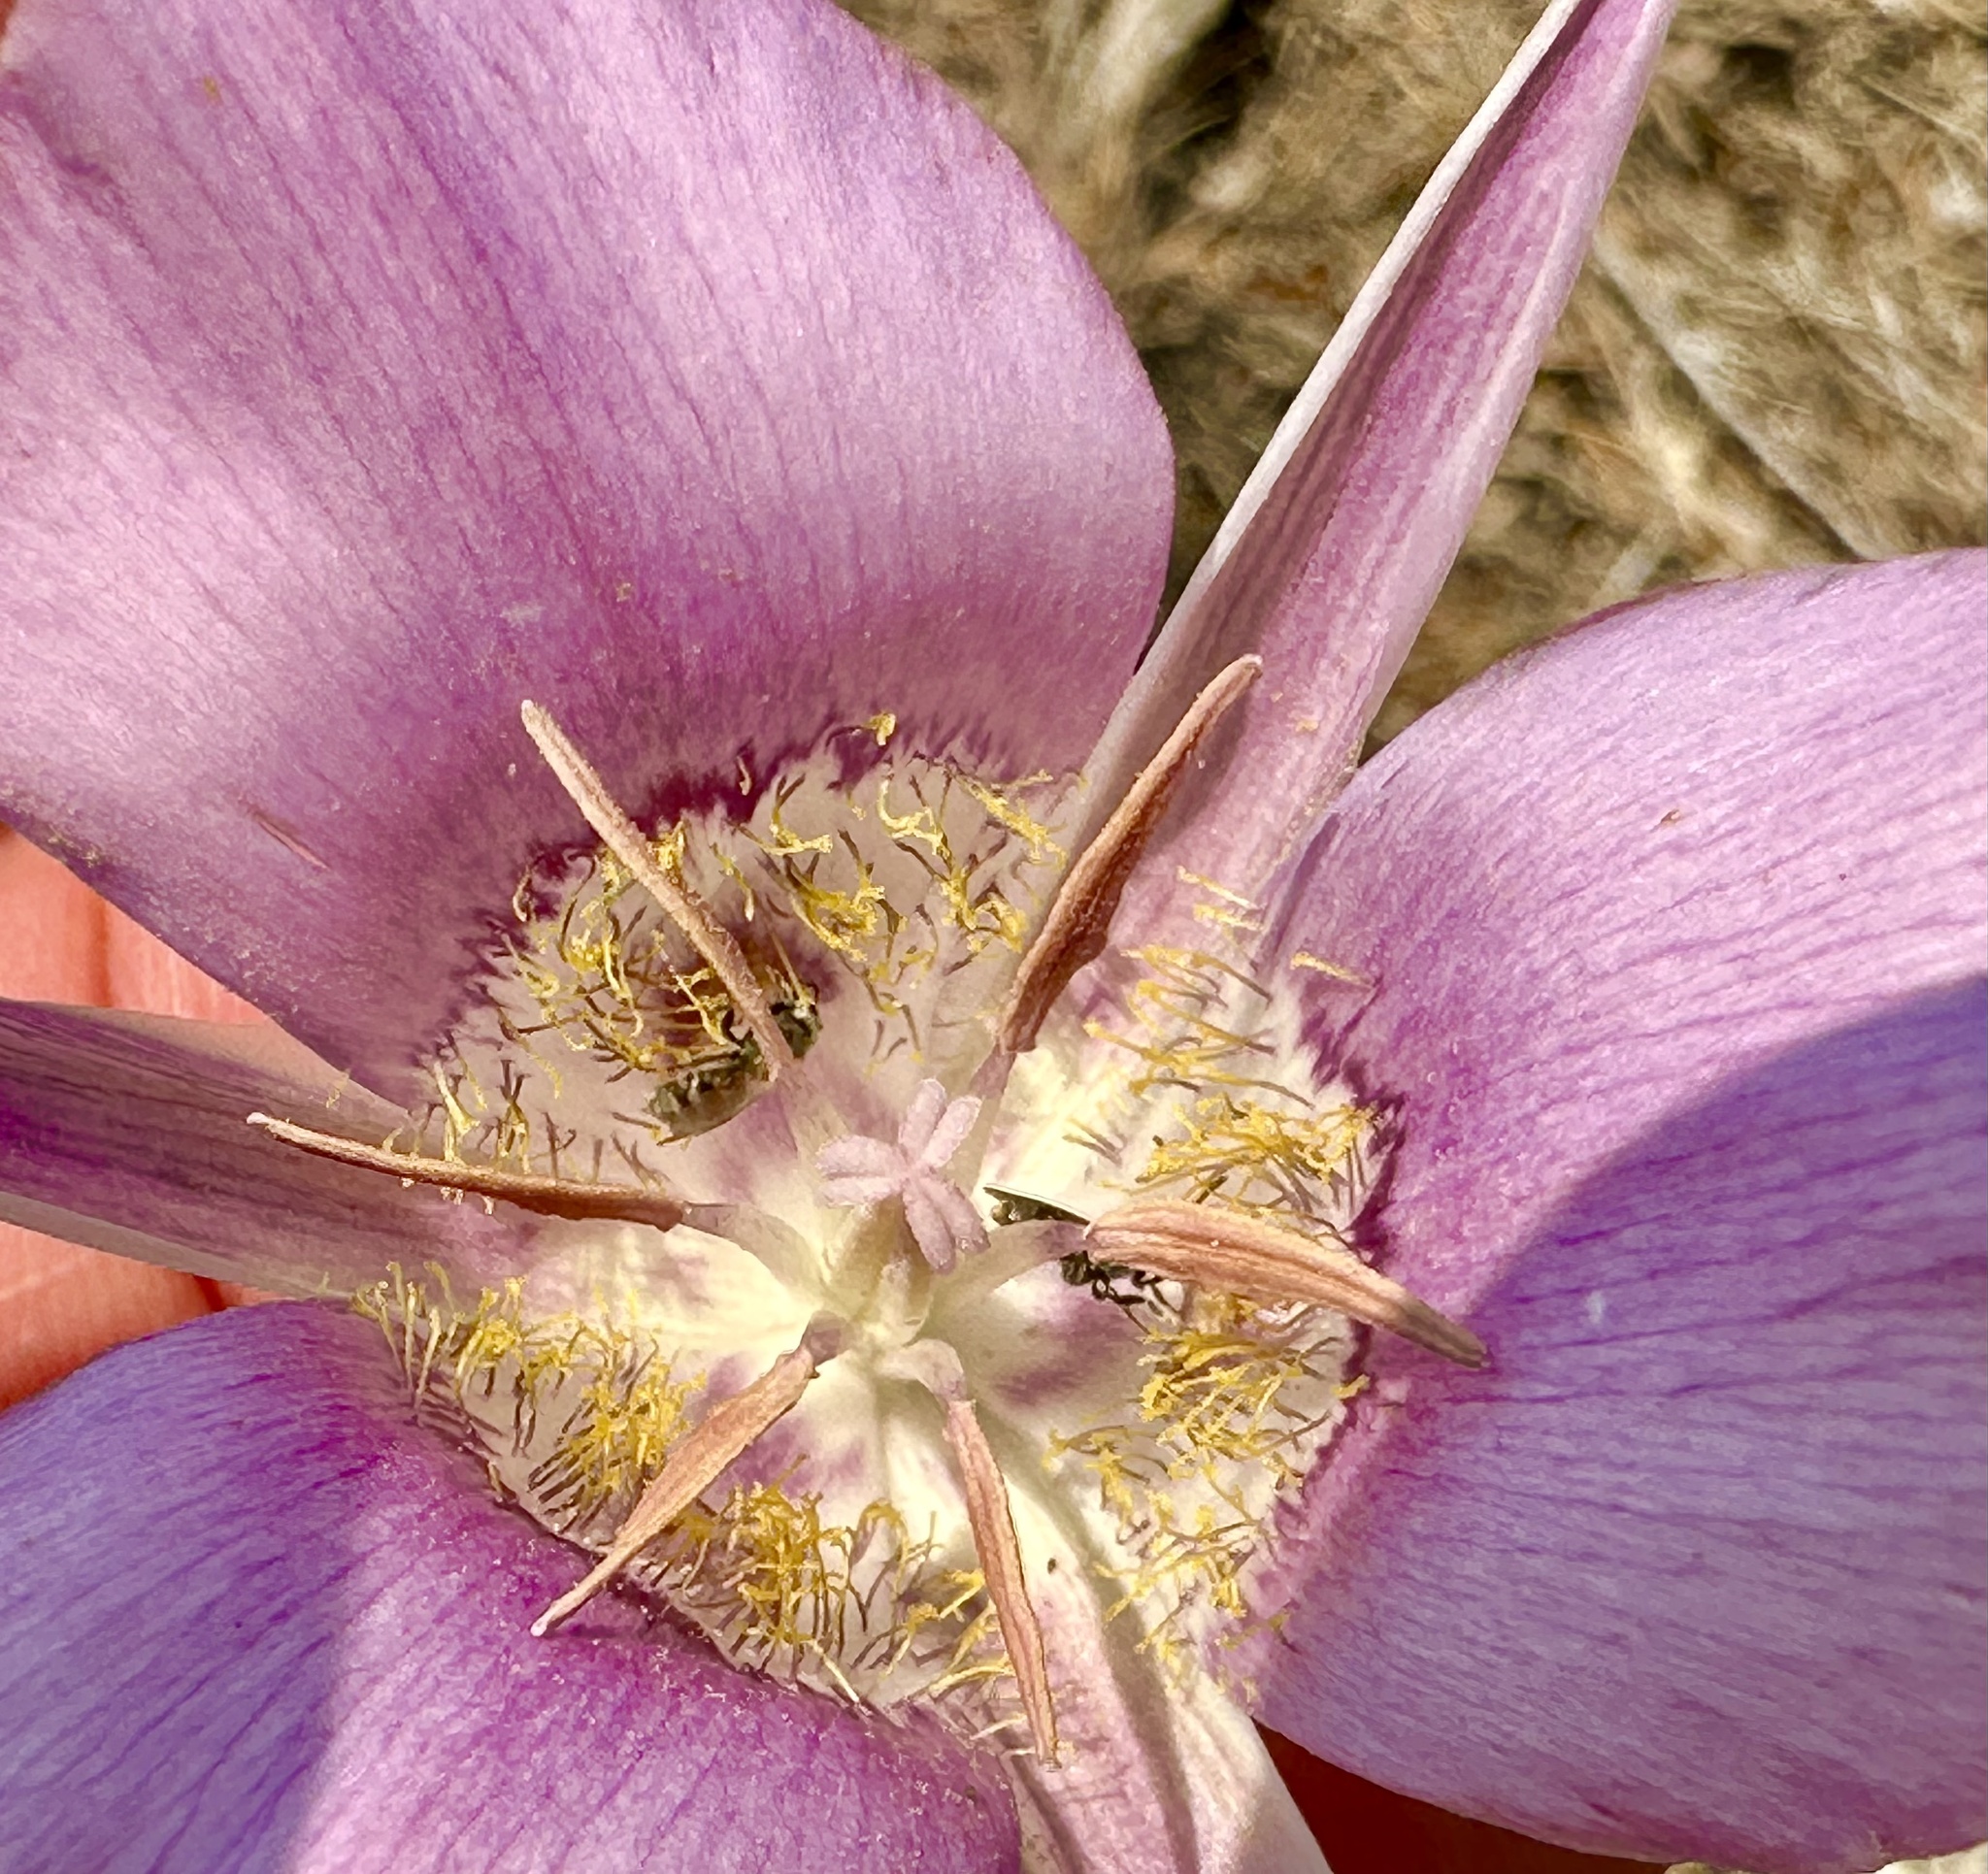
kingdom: Plantae
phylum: Tracheophyta
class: Liliopsida
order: Liliales
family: Liliaceae
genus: Calochortus
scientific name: Calochortus macrocarpus
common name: Green-band mariposa lily
